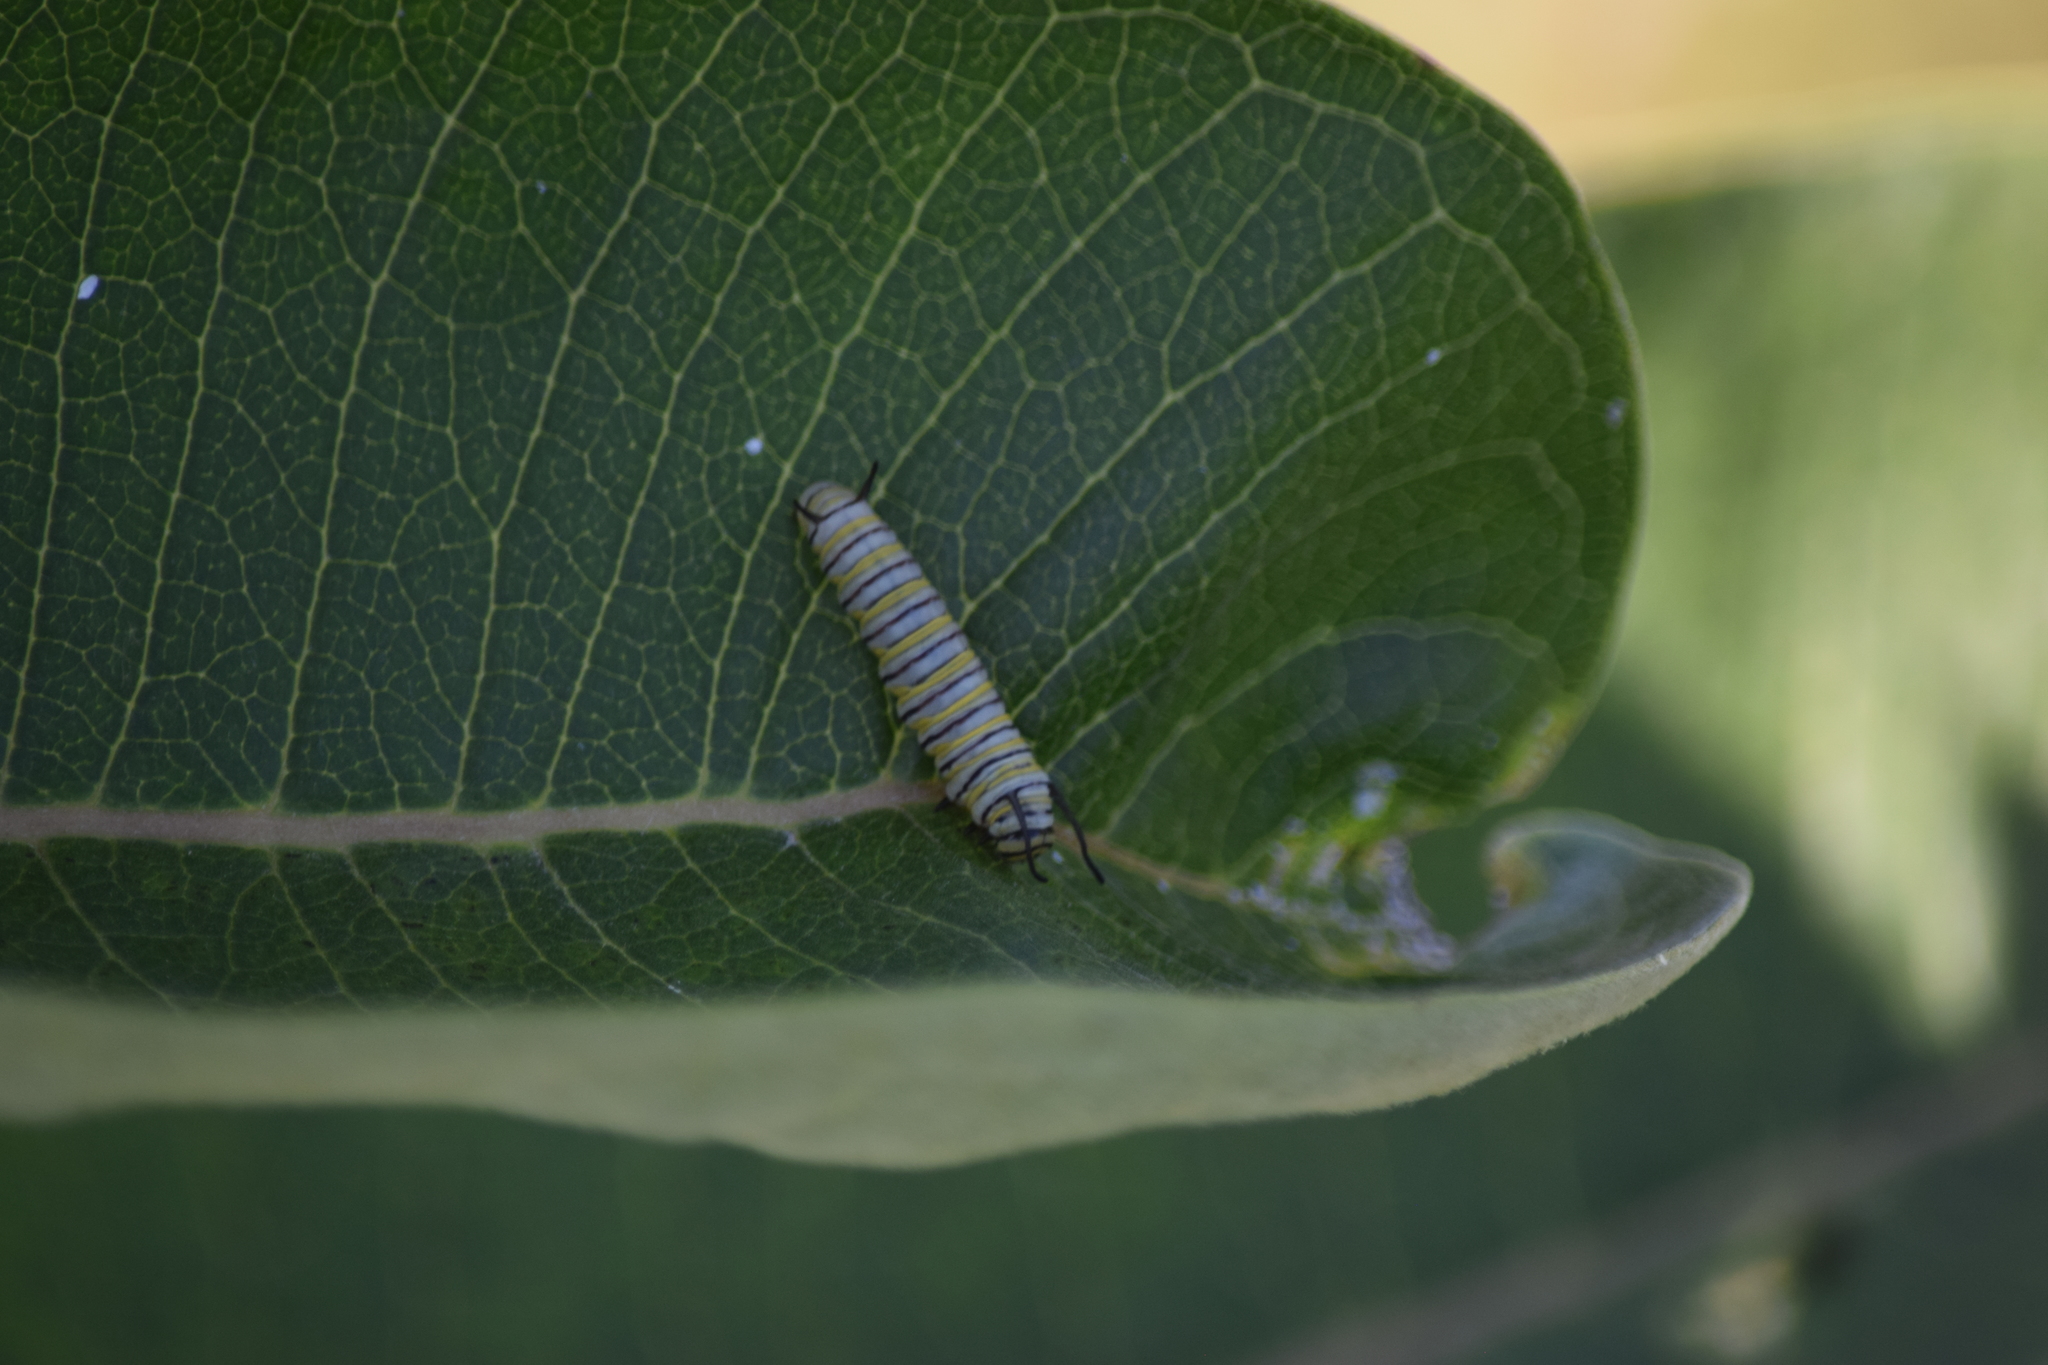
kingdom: Animalia
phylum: Arthropoda
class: Insecta
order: Lepidoptera
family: Nymphalidae
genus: Danaus
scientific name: Danaus plexippus
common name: Monarch
